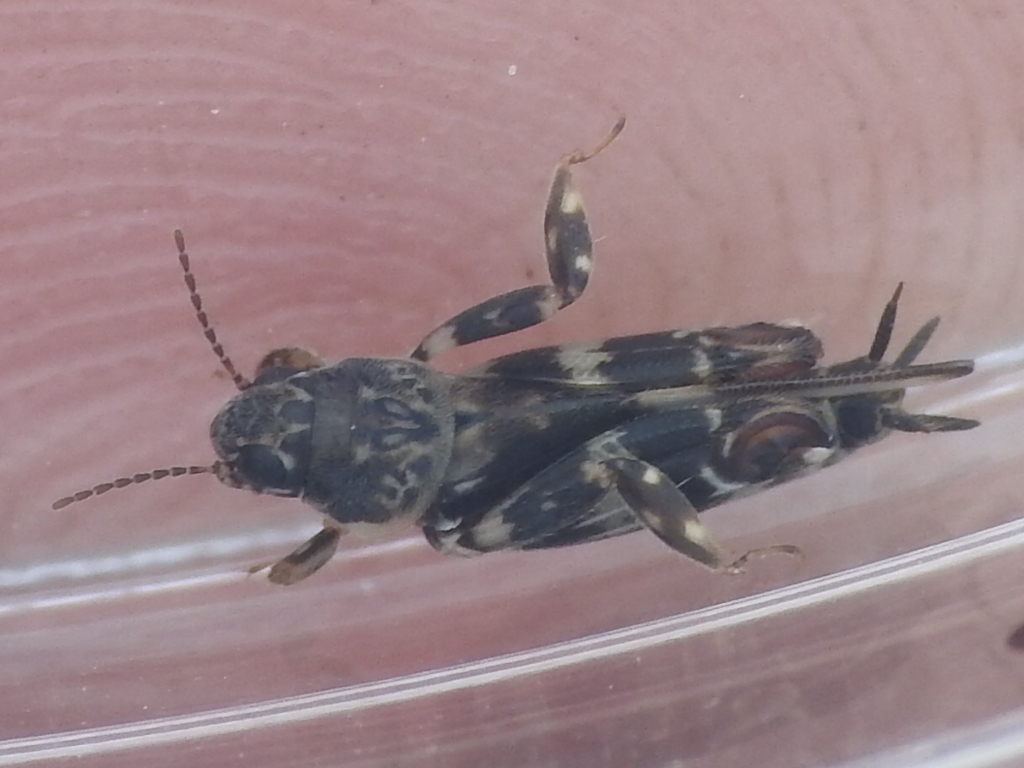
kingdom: Animalia
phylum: Arthropoda
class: Insecta
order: Orthoptera
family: Tridactylidae
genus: Ellipes
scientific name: Ellipes minuta
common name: Minute pygmy locust
